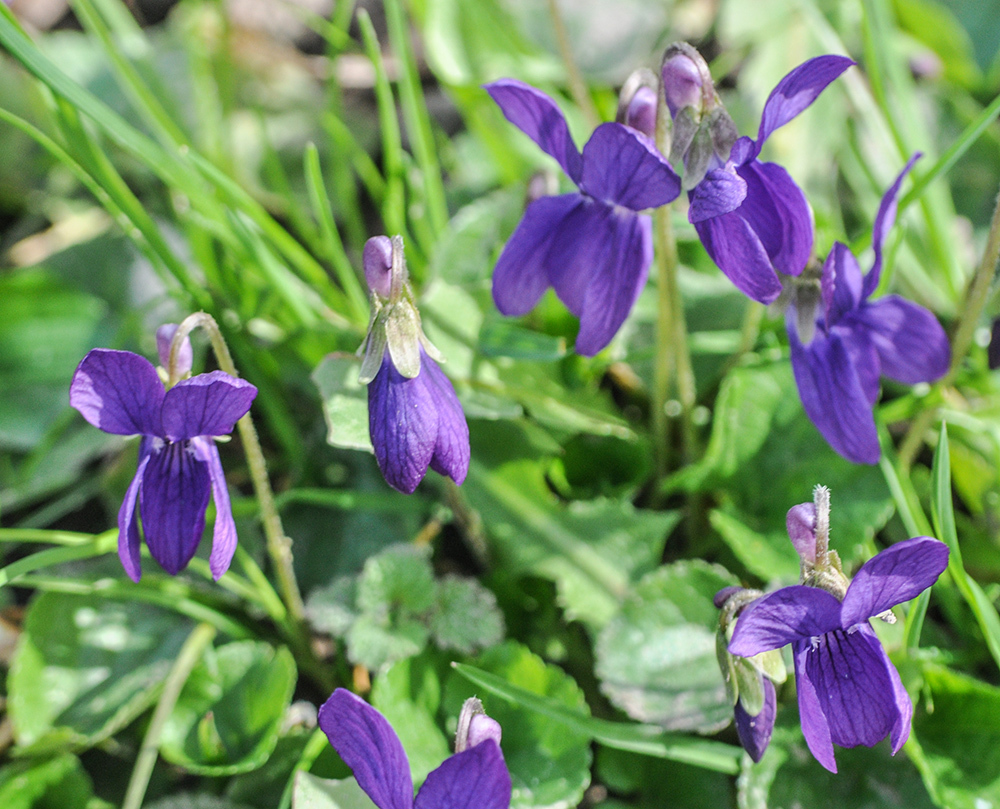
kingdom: Plantae
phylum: Tracheophyta
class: Magnoliopsida
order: Malpighiales
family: Violaceae
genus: Viola
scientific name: Viola odorata
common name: Sweet violet
